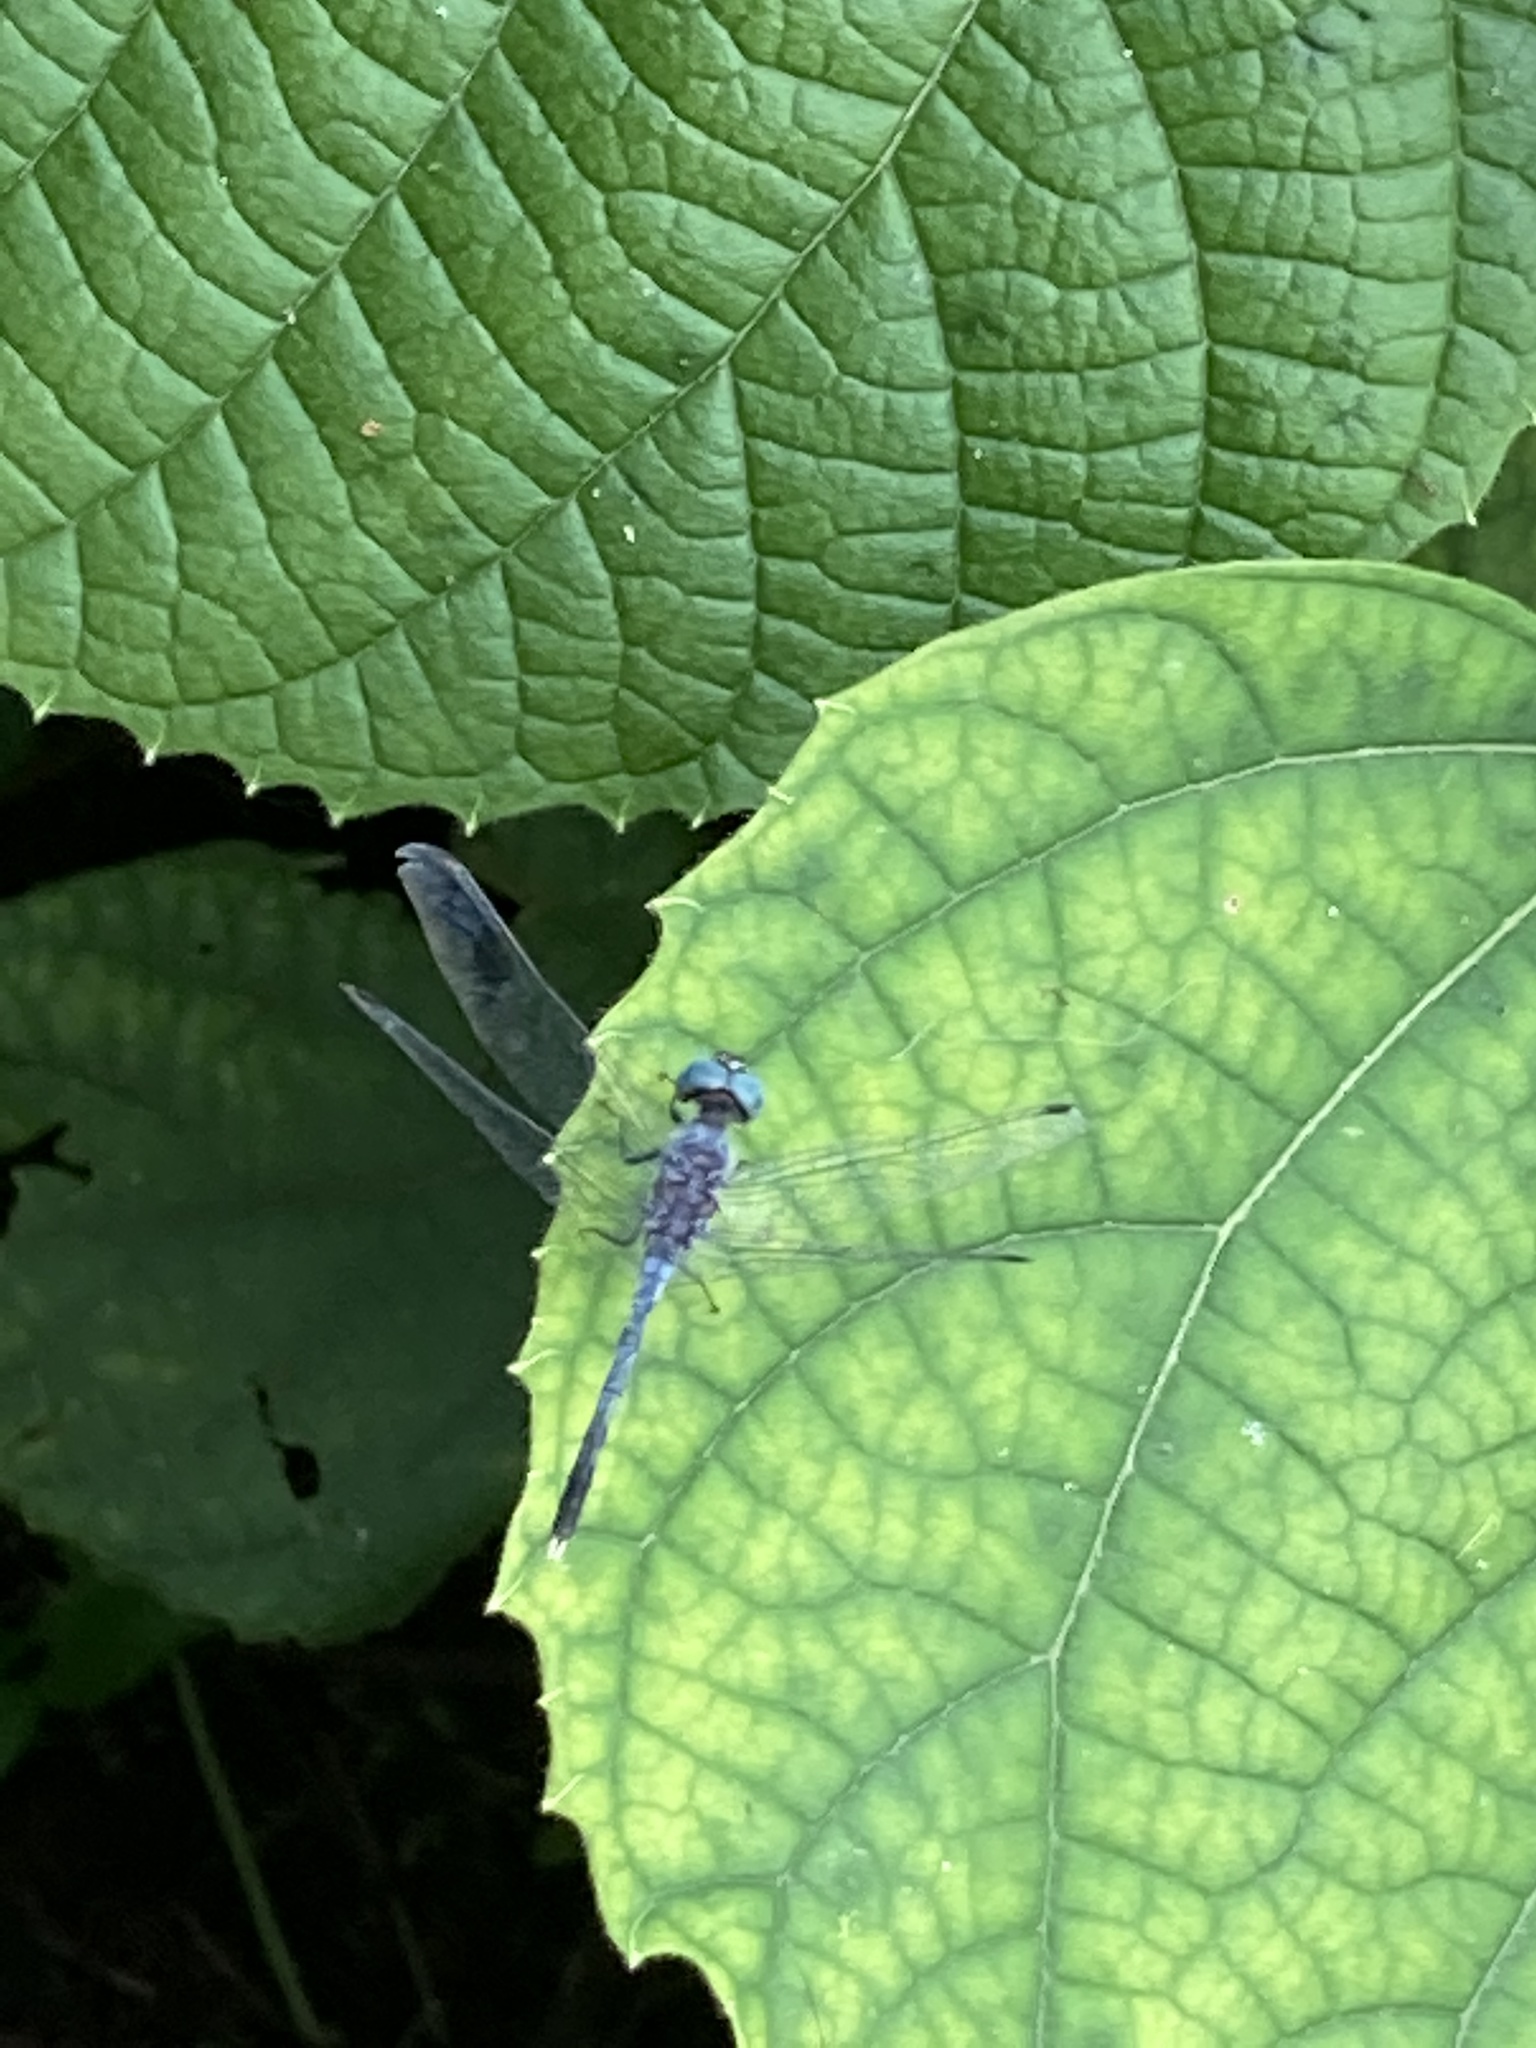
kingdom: Animalia
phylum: Arthropoda
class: Insecta
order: Odonata
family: Libellulidae
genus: Diplacodes
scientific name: Diplacodes trivialis
